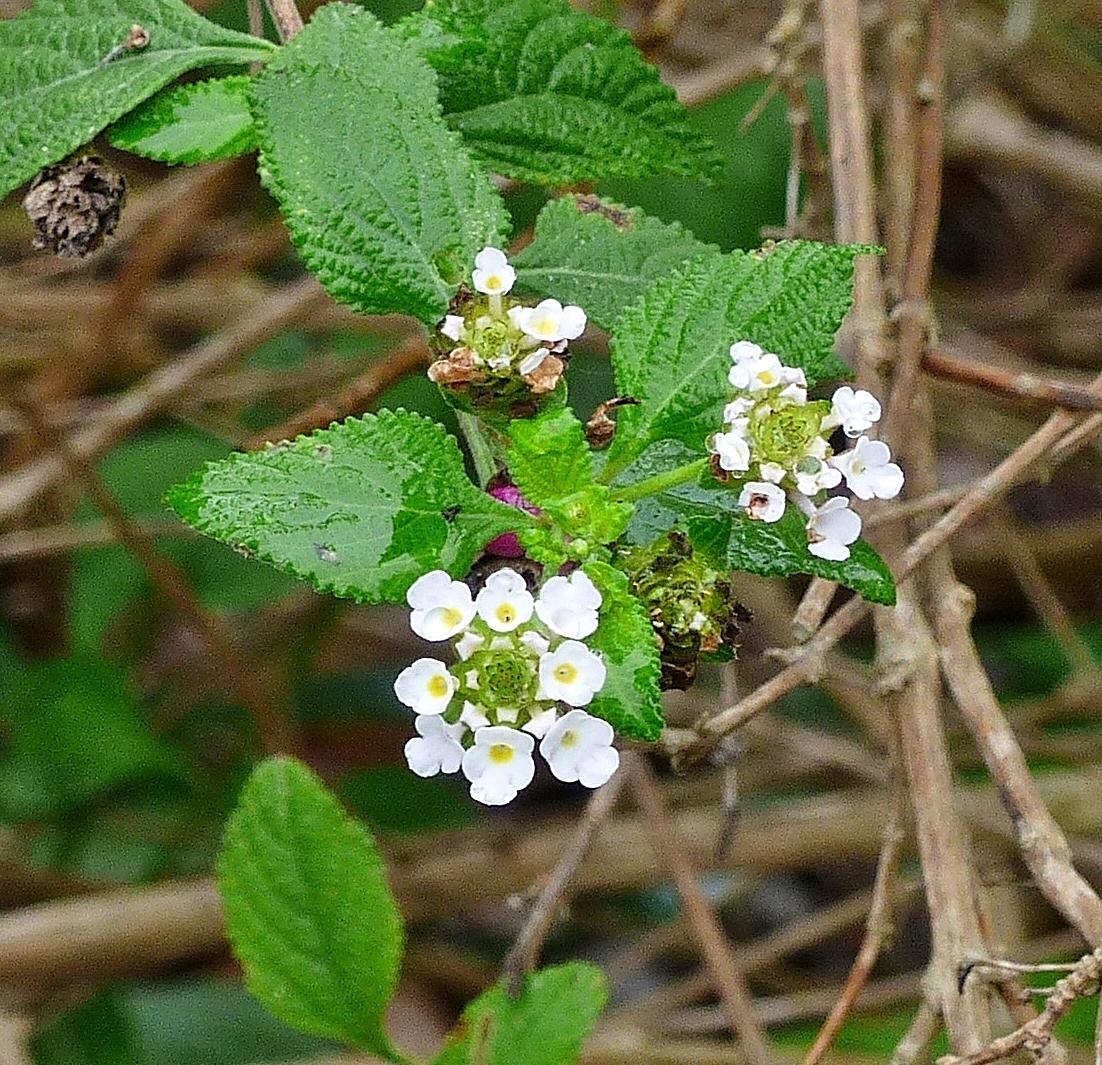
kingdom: Plantae
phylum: Tracheophyta
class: Magnoliopsida
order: Lamiales
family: Verbenaceae
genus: Lantana
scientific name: Lantana velutina
